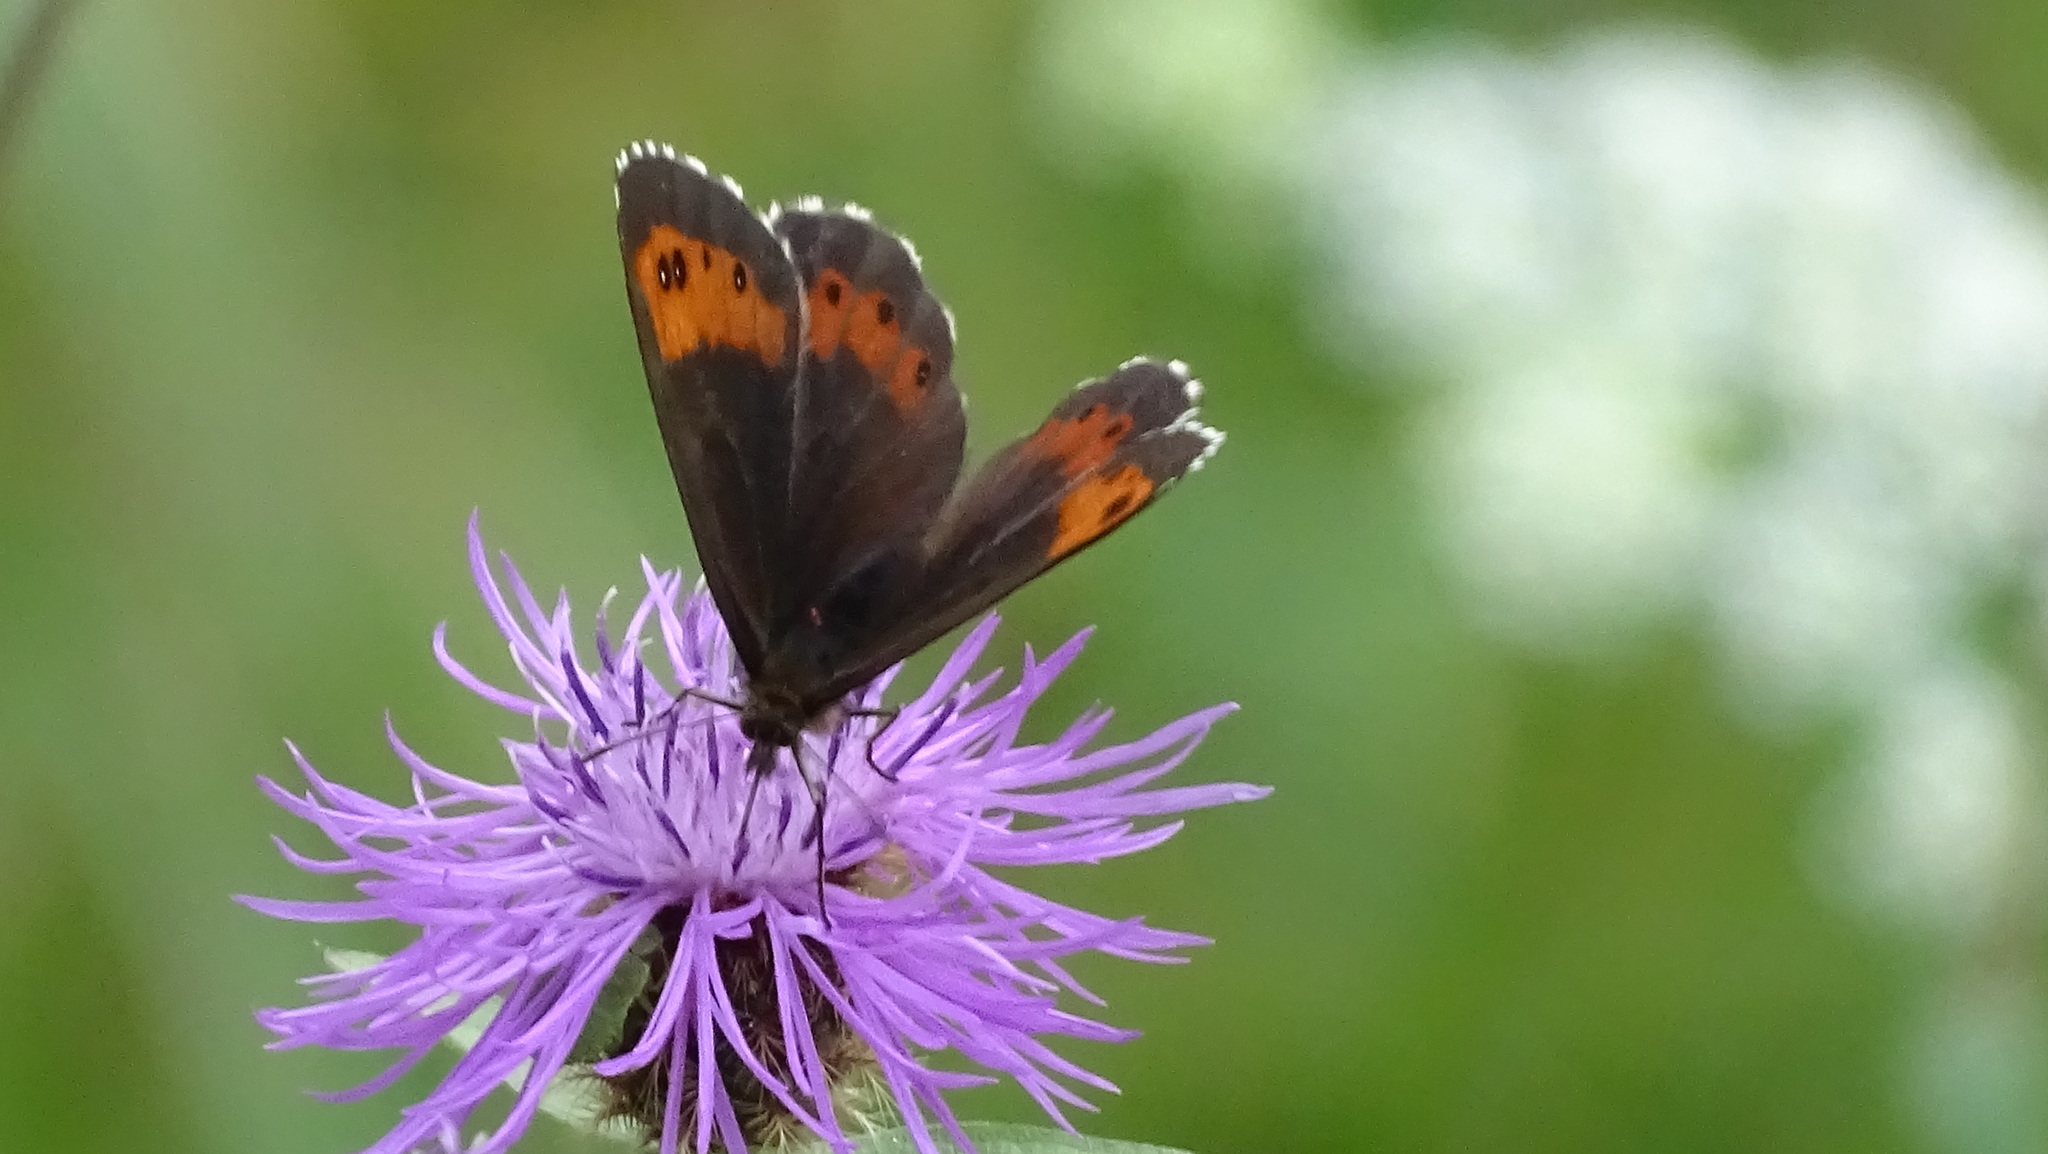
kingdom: Animalia
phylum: Arthropoda
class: Insecta
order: Lepidoptera
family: Nymphalidae
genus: Erebia
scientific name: Erebia ligea
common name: Arran brown
